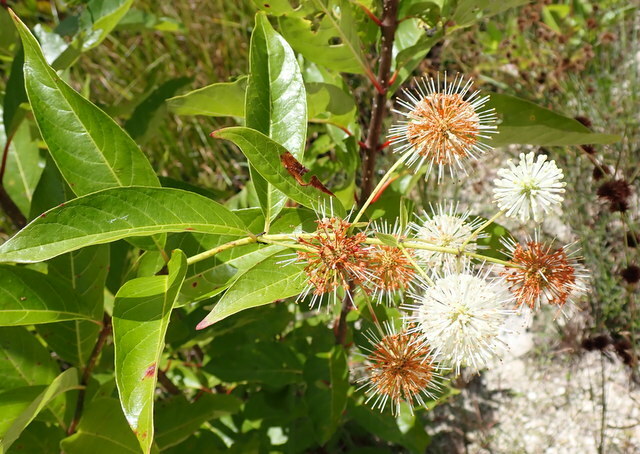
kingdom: Plantae
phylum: Tracheophyta
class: Magnoliopsida
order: Gentianales
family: Rubiaceae
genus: Cephalanthus
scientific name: Cephalanthus occidentalis
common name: Button-willow
